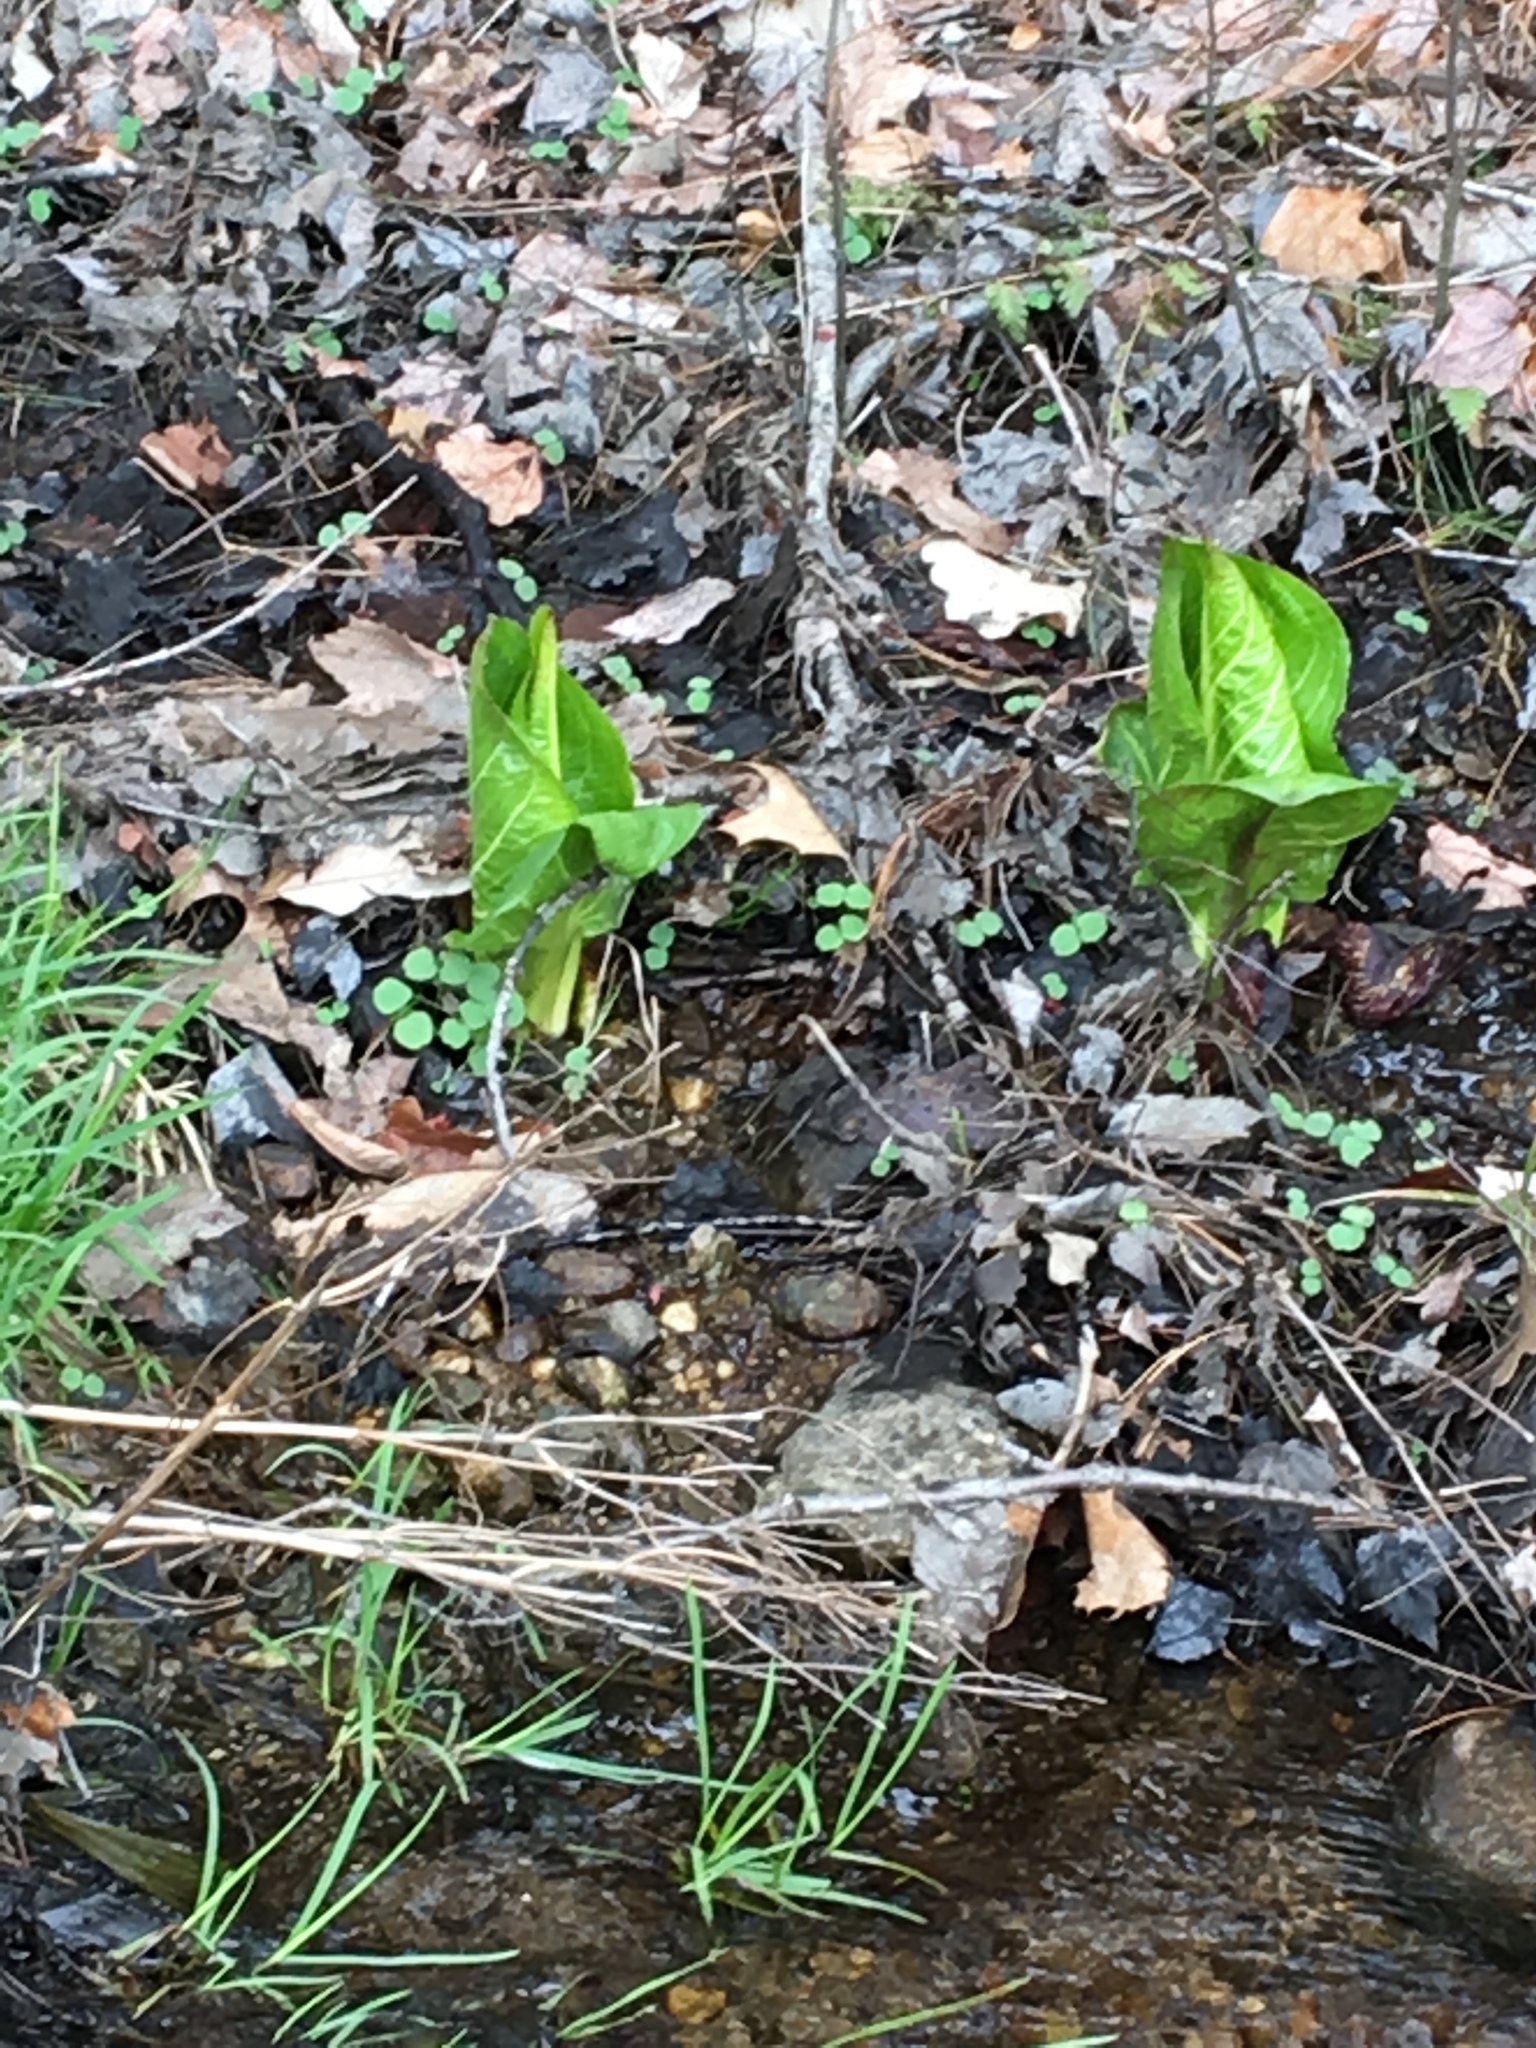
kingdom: Plantae
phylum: Tracheophyta
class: Liliopsida
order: Alismatales
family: Araceae
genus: Symplocarpus
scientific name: Symplocarpus foetidus
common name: Eastern skunk cabbage
